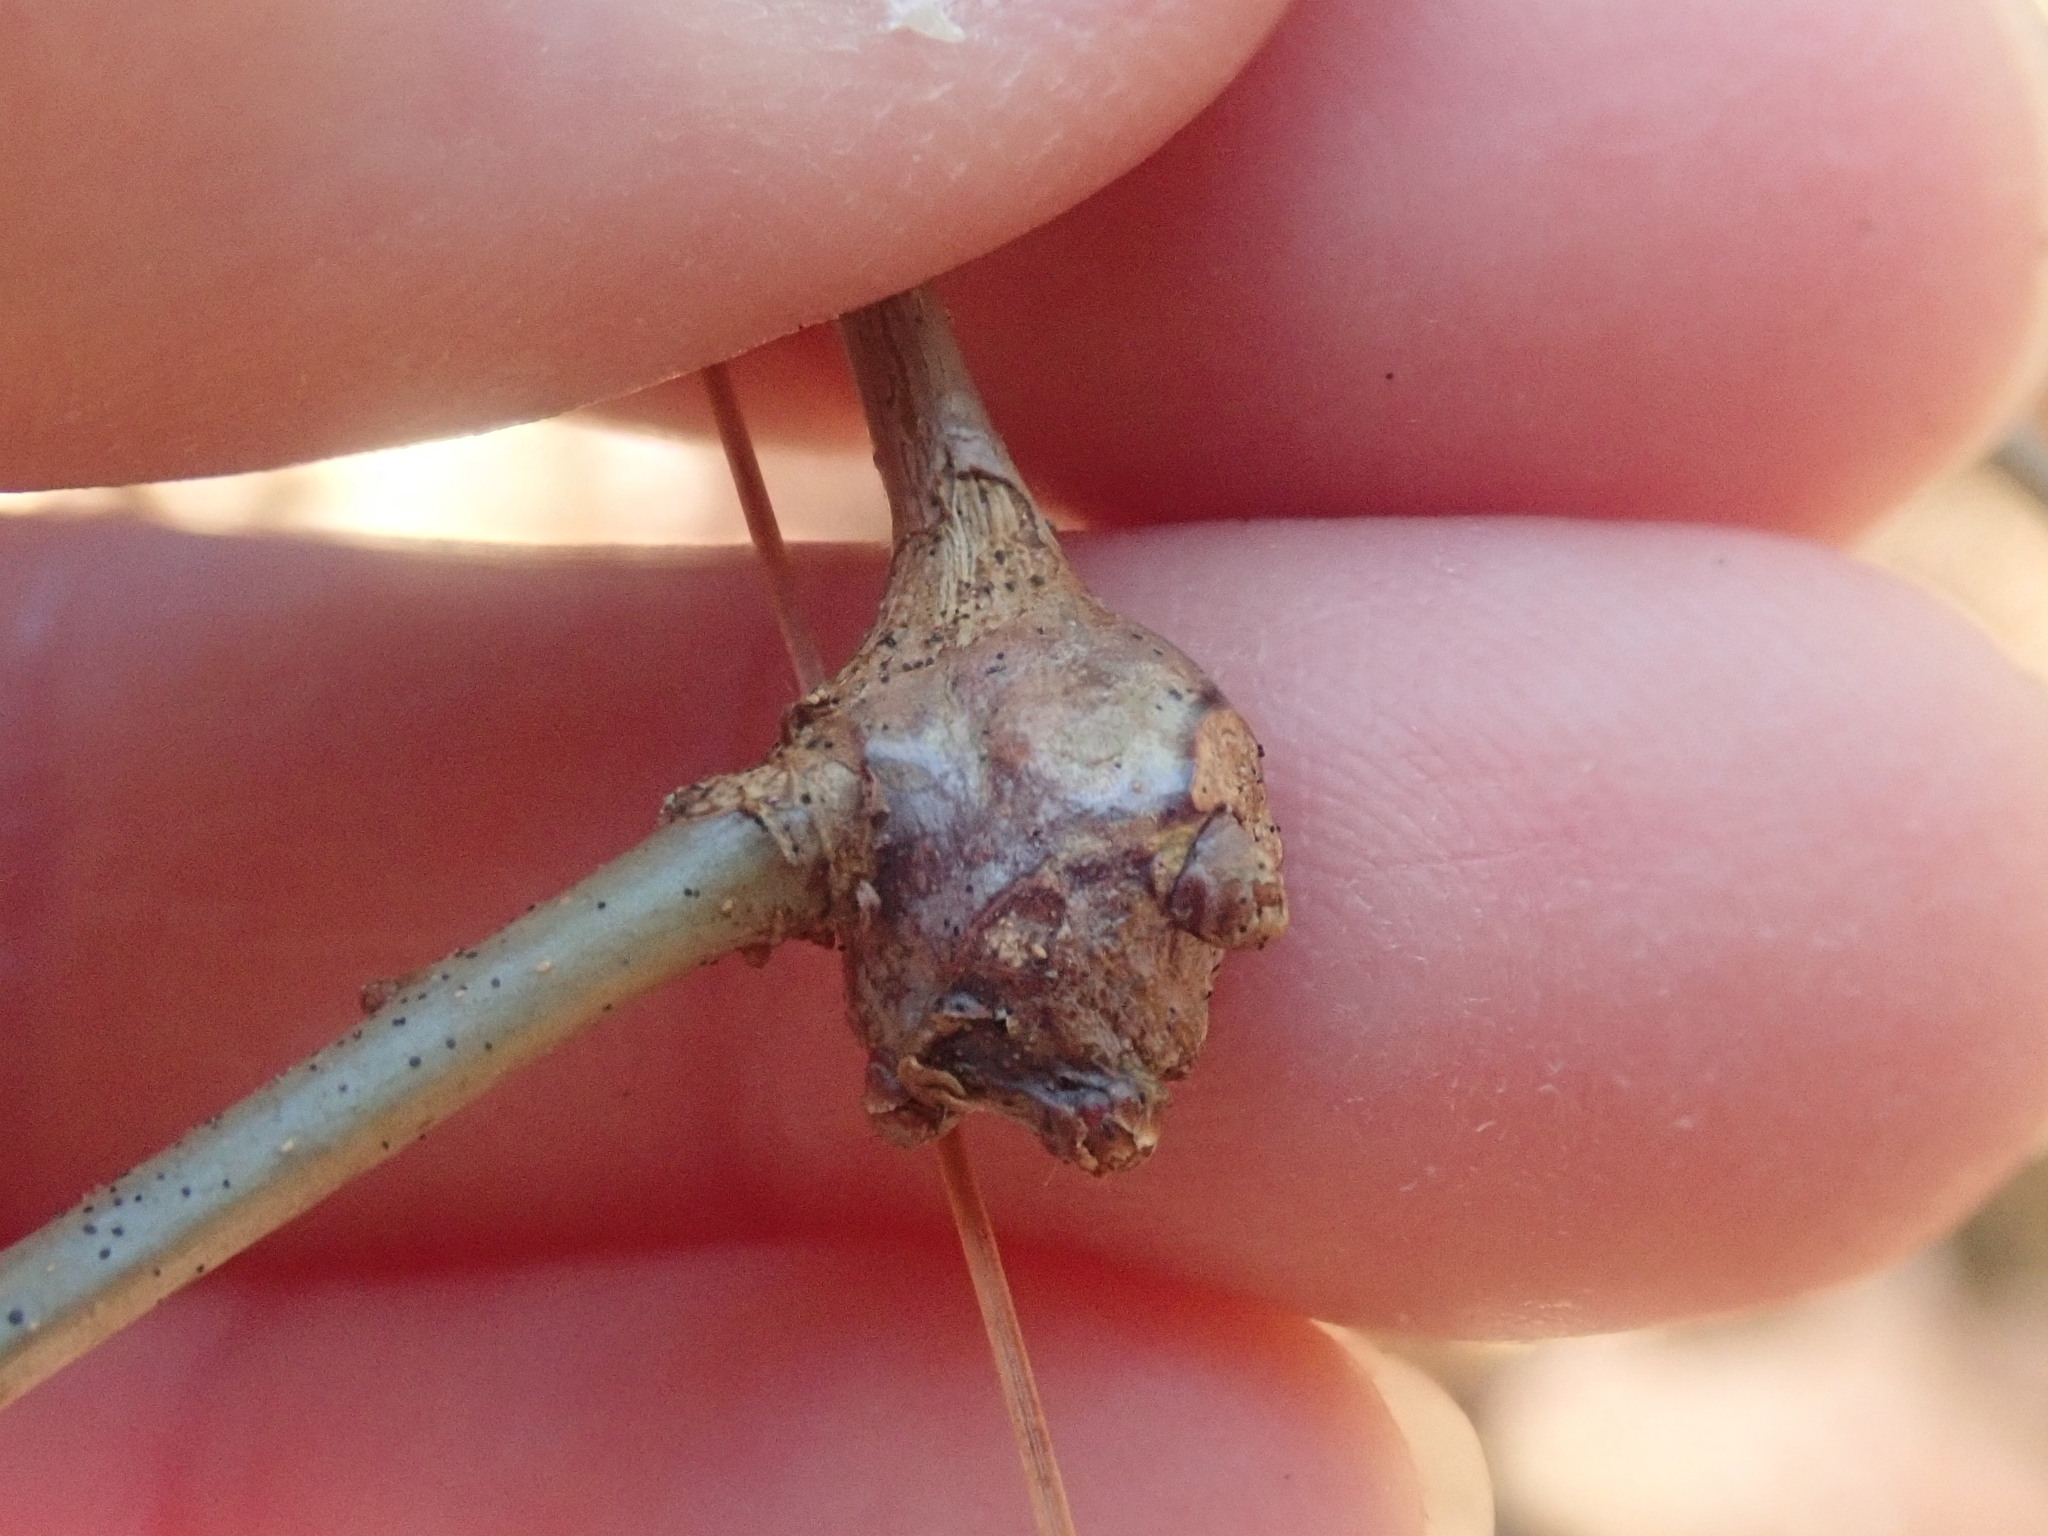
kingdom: Animalia
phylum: Arthropoda
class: Insecta
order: Hymenoptera
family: Cynipidae
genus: Callirhytis
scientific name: Callirhytis clavula
